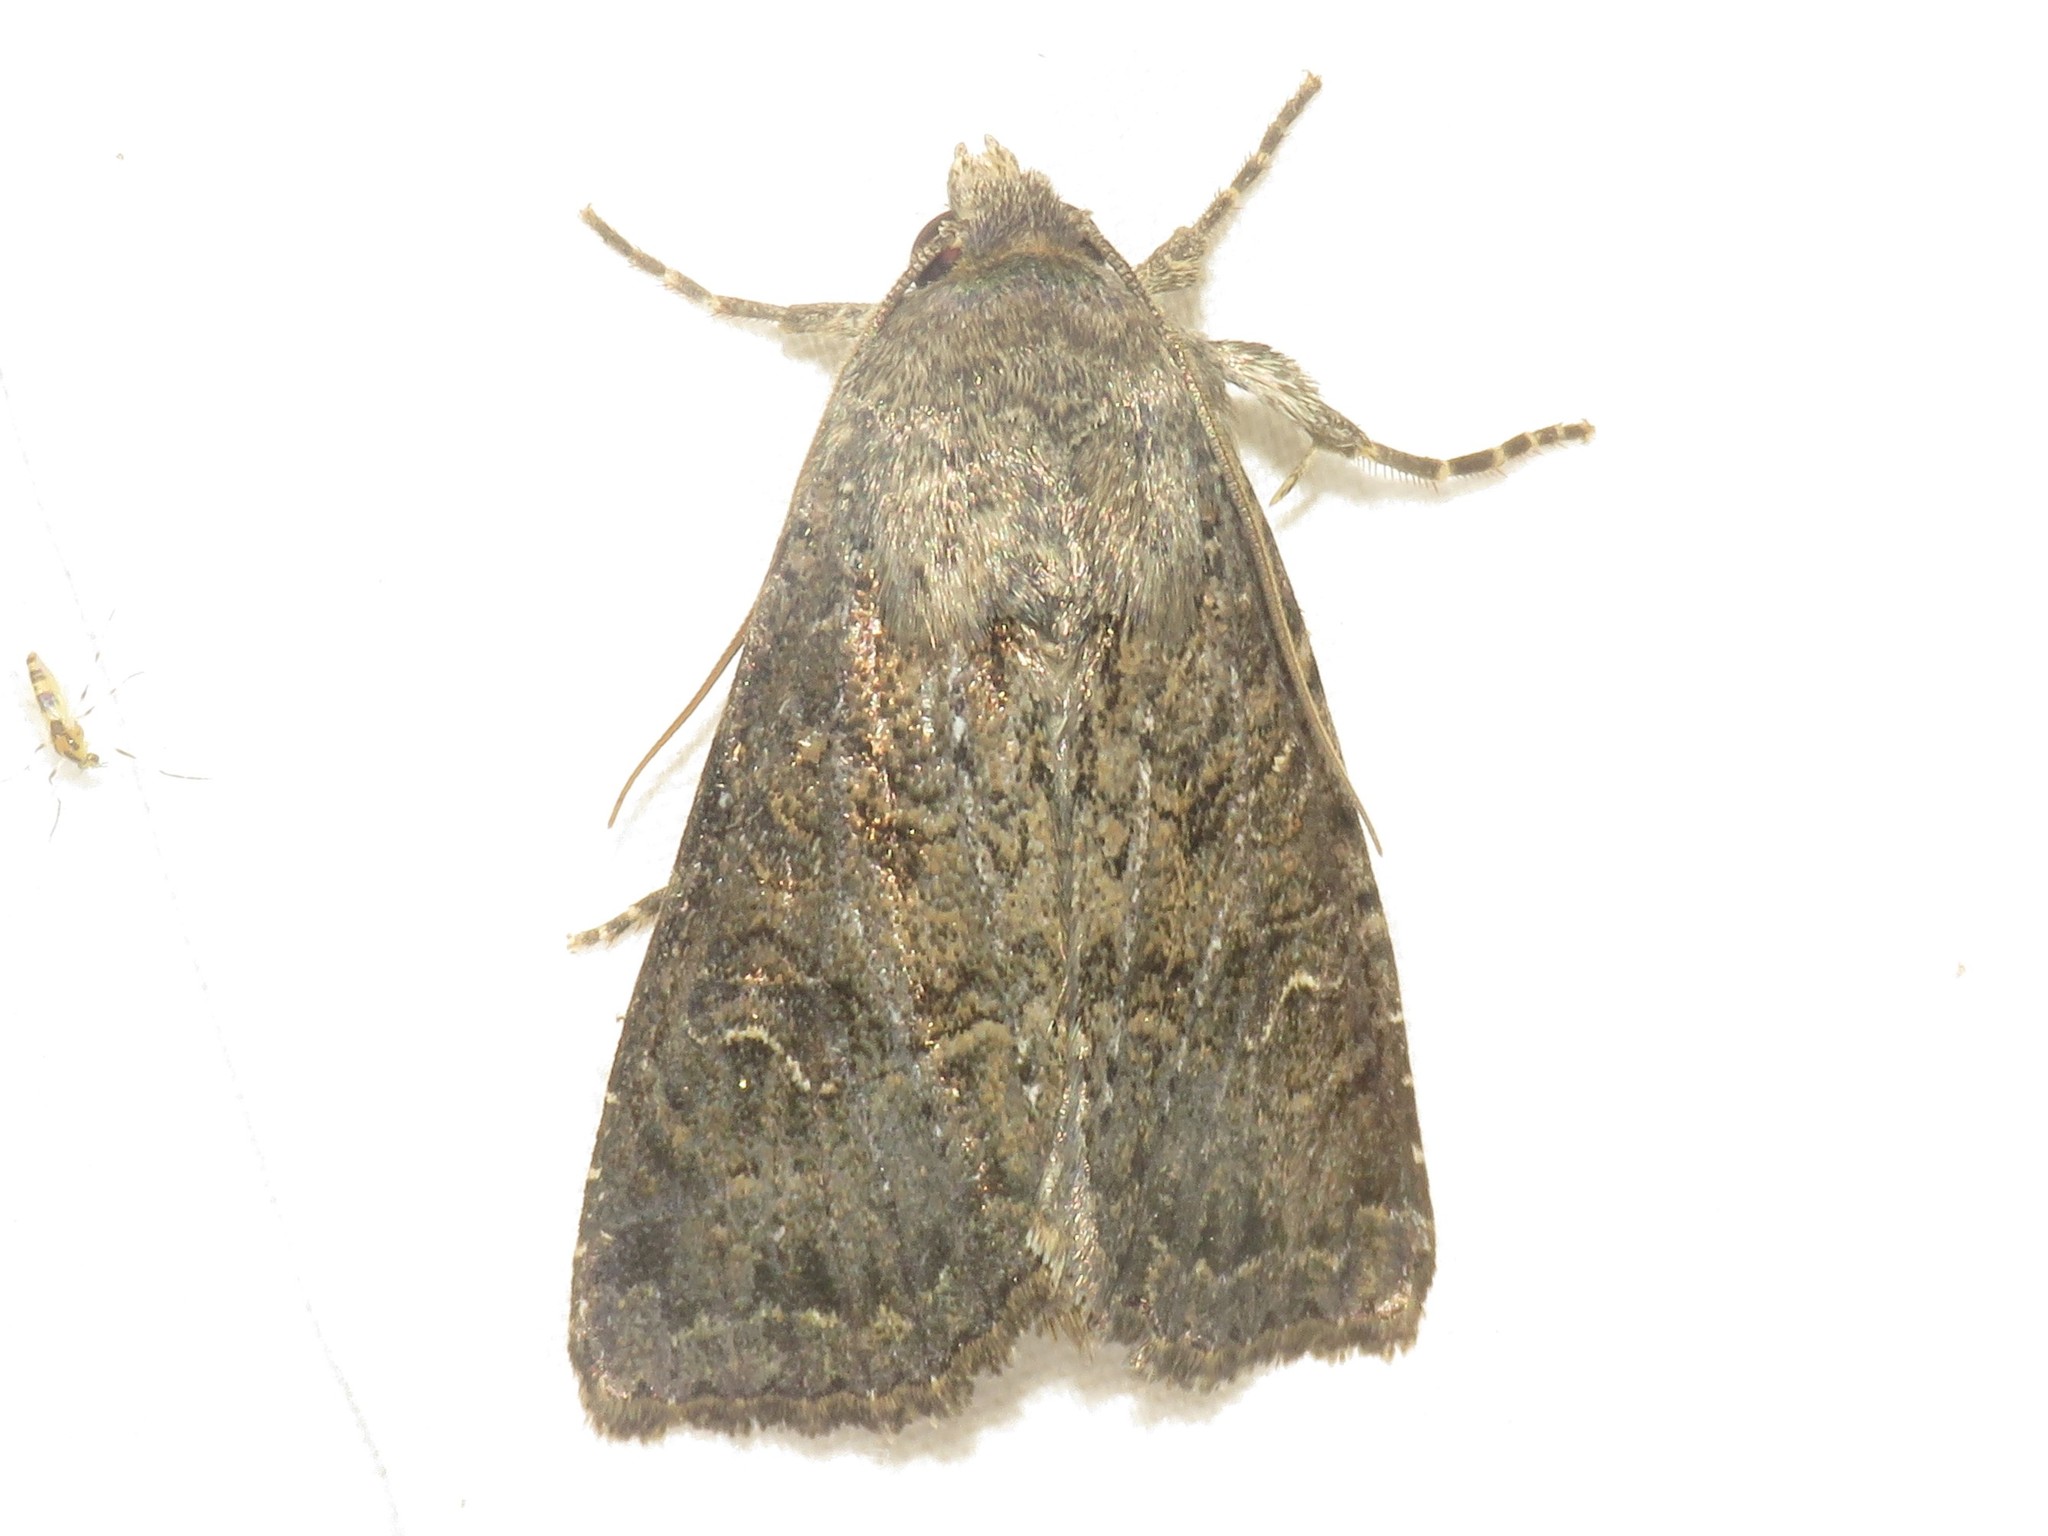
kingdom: Animalia
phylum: Arthropoda
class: Insecta
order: Lepidoptera
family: Noctuidae
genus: Apamea
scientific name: Apamea devastator
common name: Glassy cutworm
